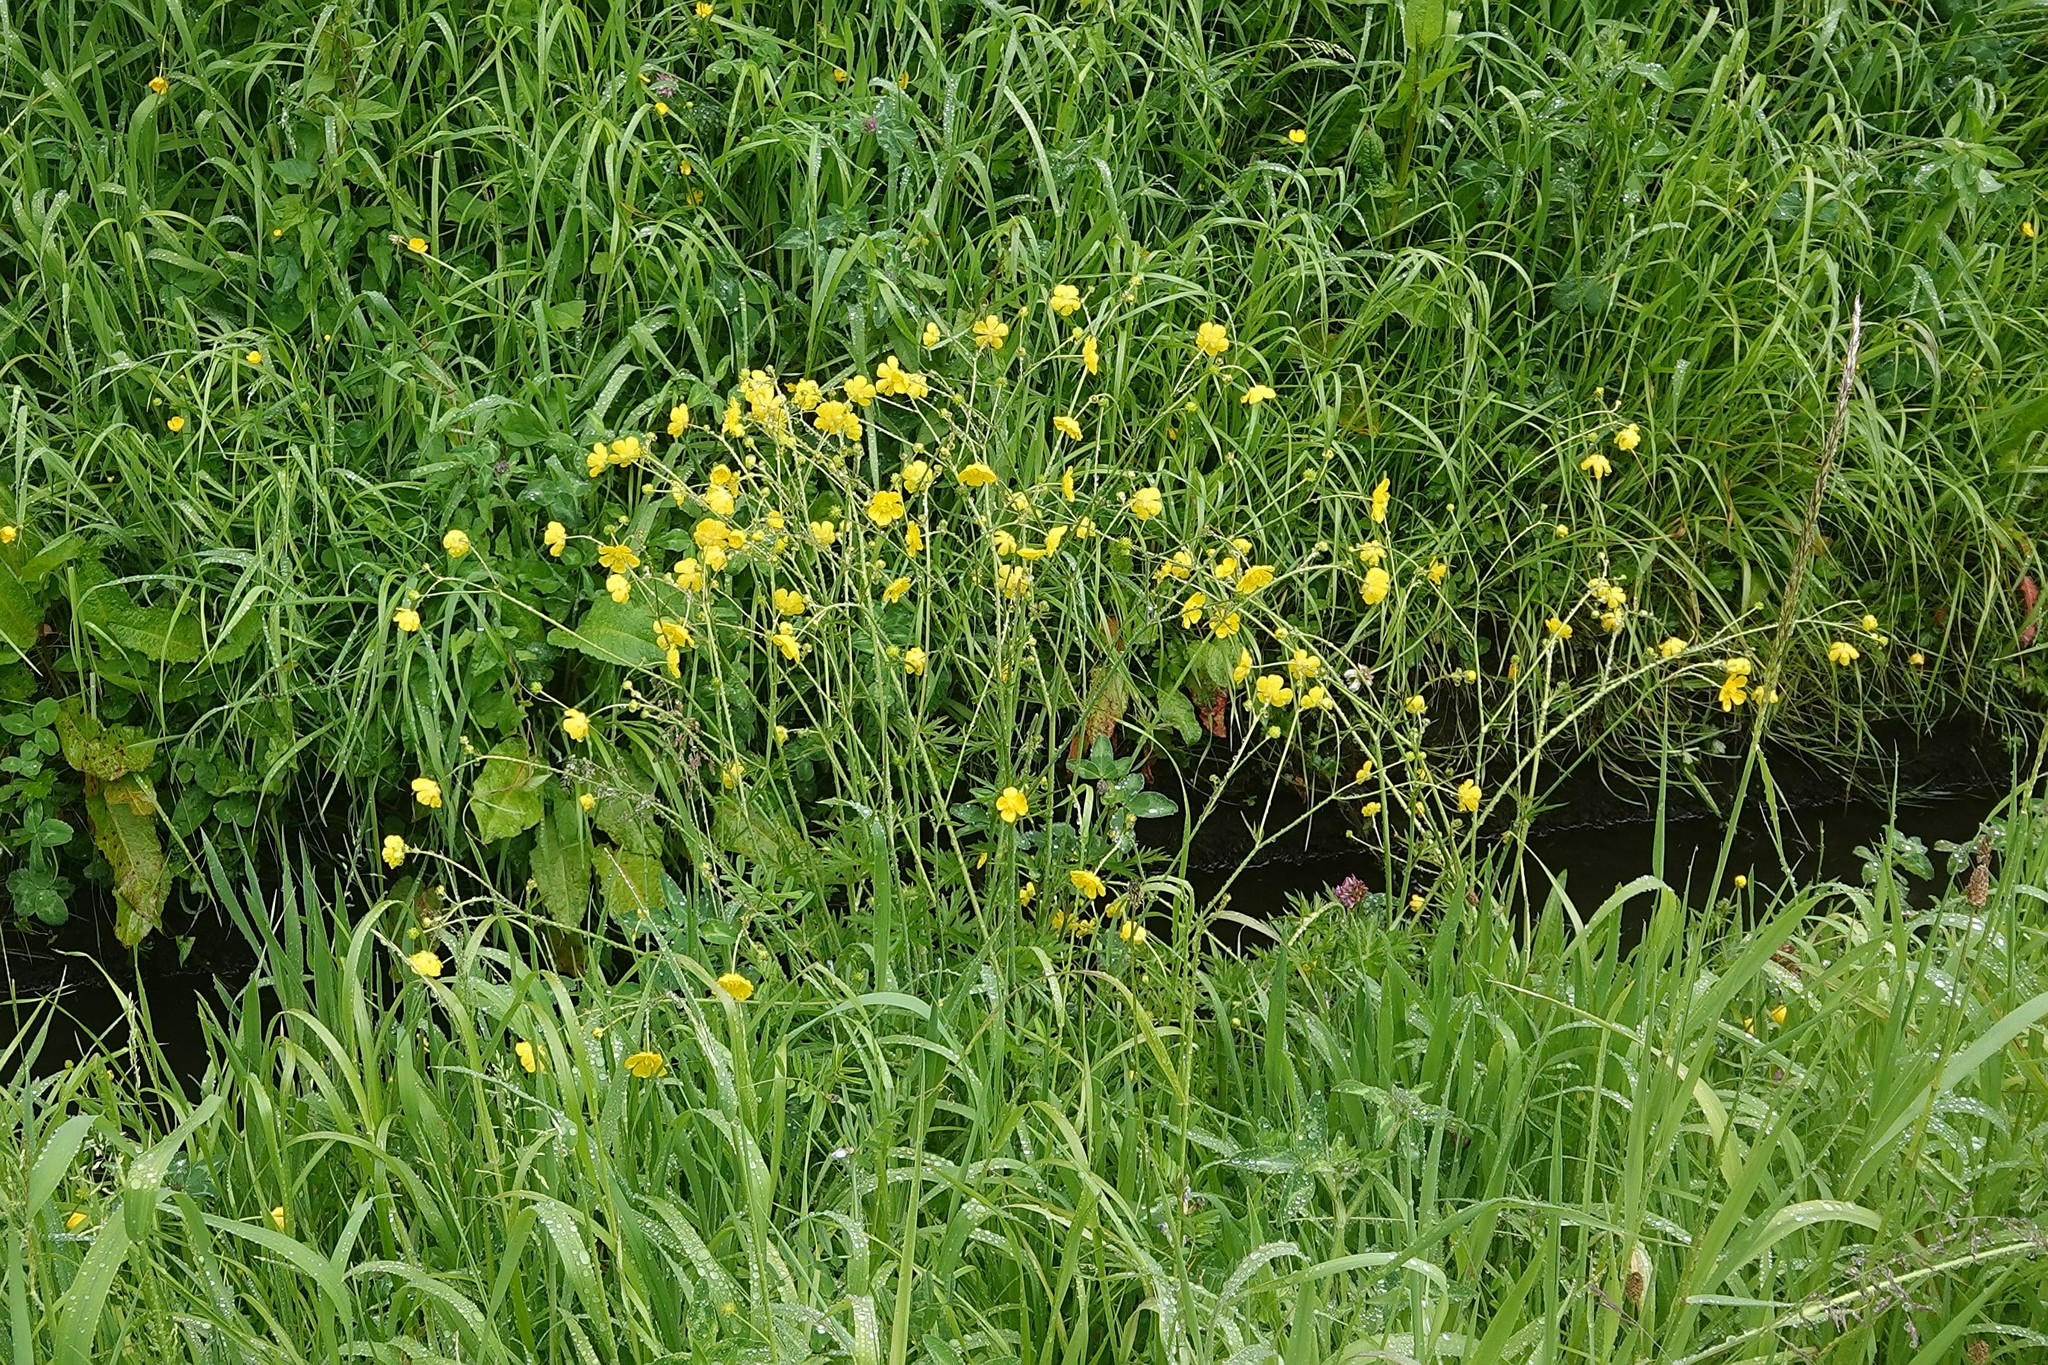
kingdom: Plantae
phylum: Tracheophyta
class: Magnoliopsida
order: Ranunculales
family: Ranunculaceae
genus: Ranunculus
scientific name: Ranunculus acris
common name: Meadow buttercup
